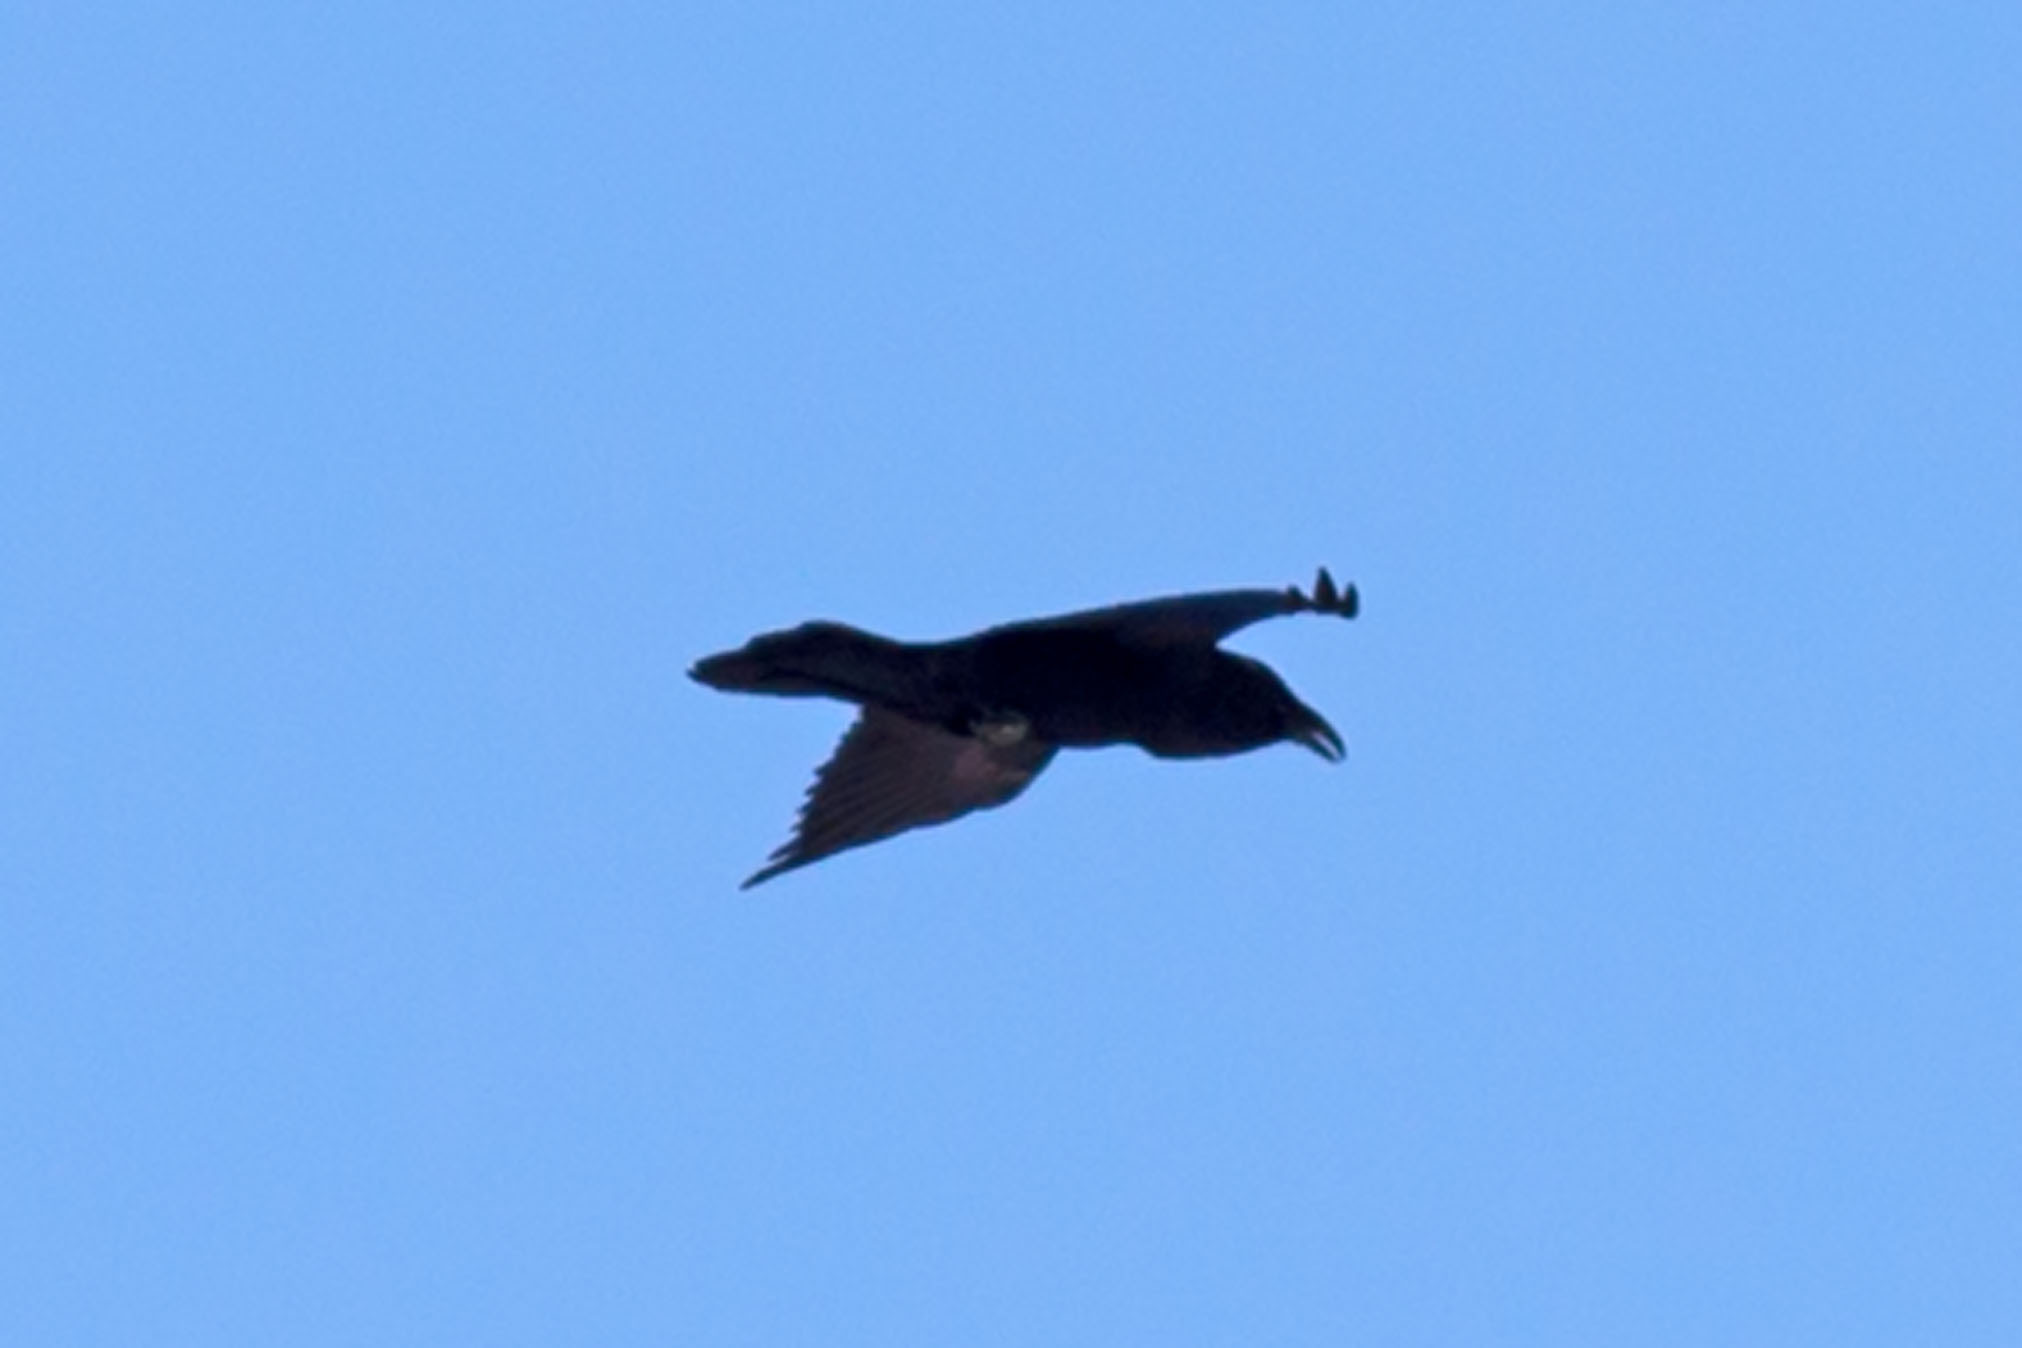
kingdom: Animalia
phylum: Chordata
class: Aves
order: Passeriformes
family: Corvidae
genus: Corvus
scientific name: Corvus corax
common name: Common raven
